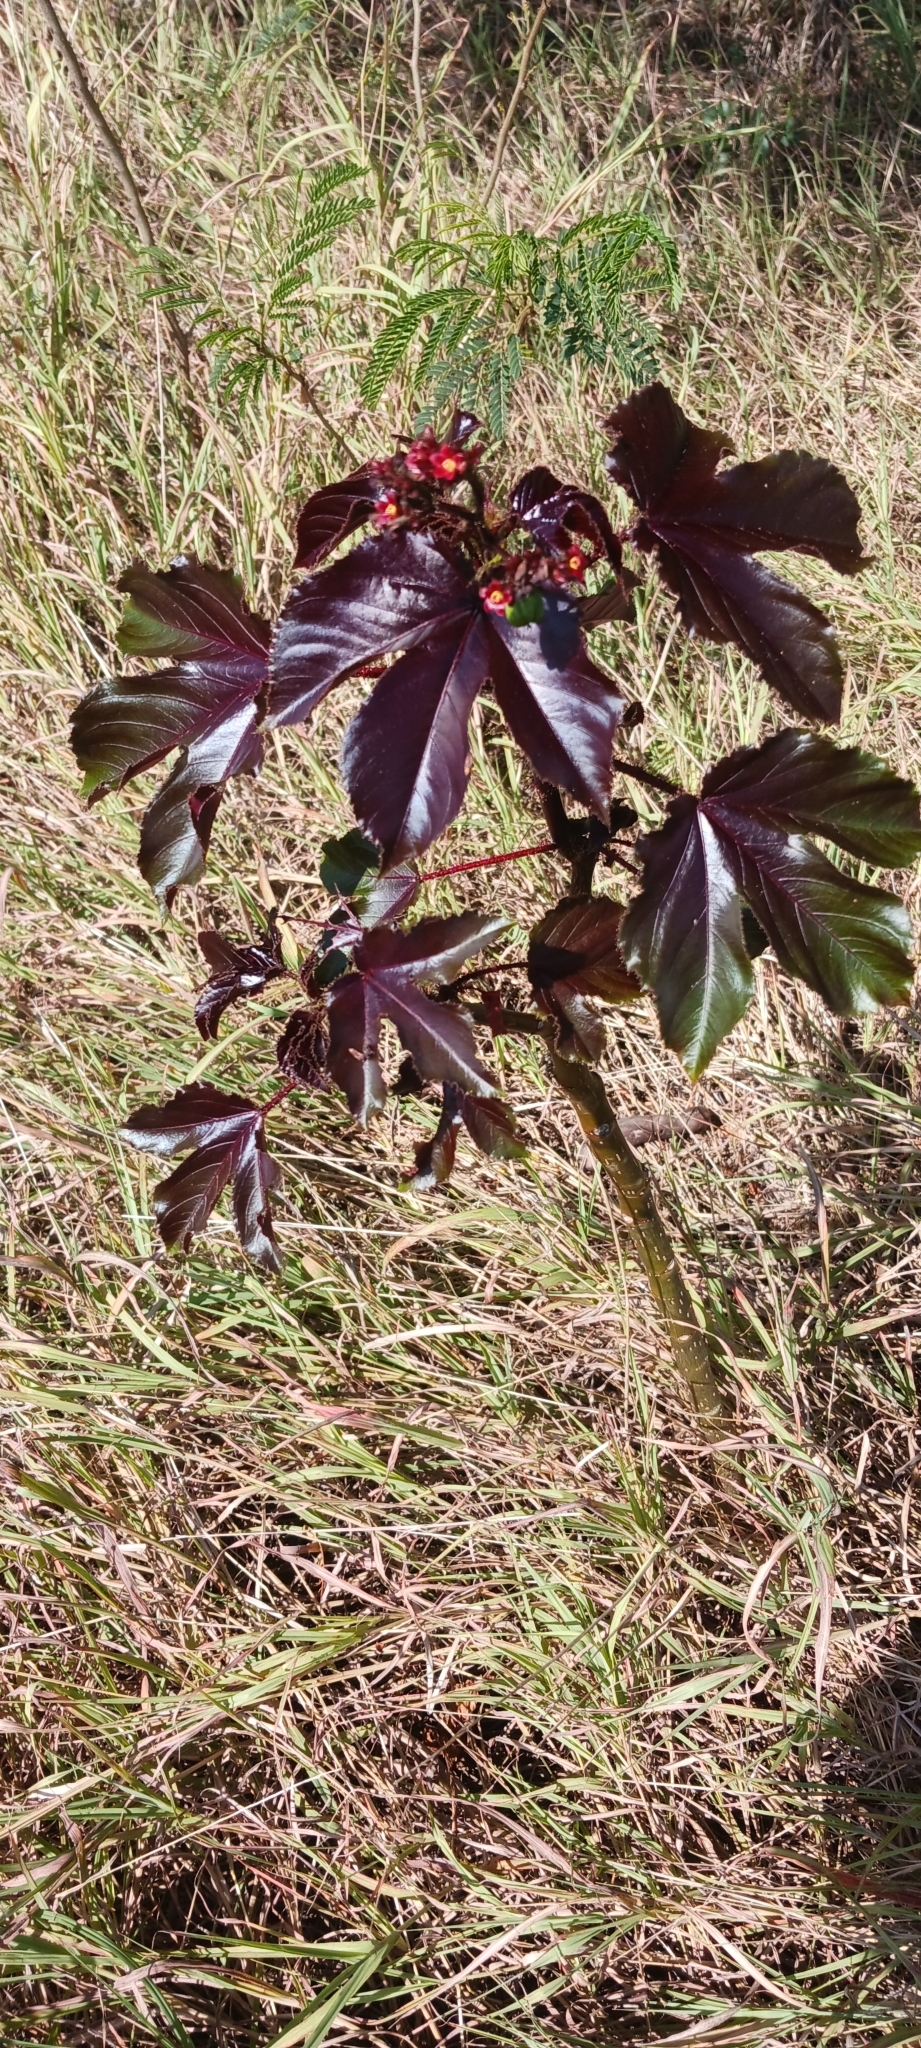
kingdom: Plantae
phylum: Tracheophyta
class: Magnoliopsida
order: Malpighiales
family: Euphorbiaceae
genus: Jatropha
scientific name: Jatropha gossypiifolia
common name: Bellyache bush
